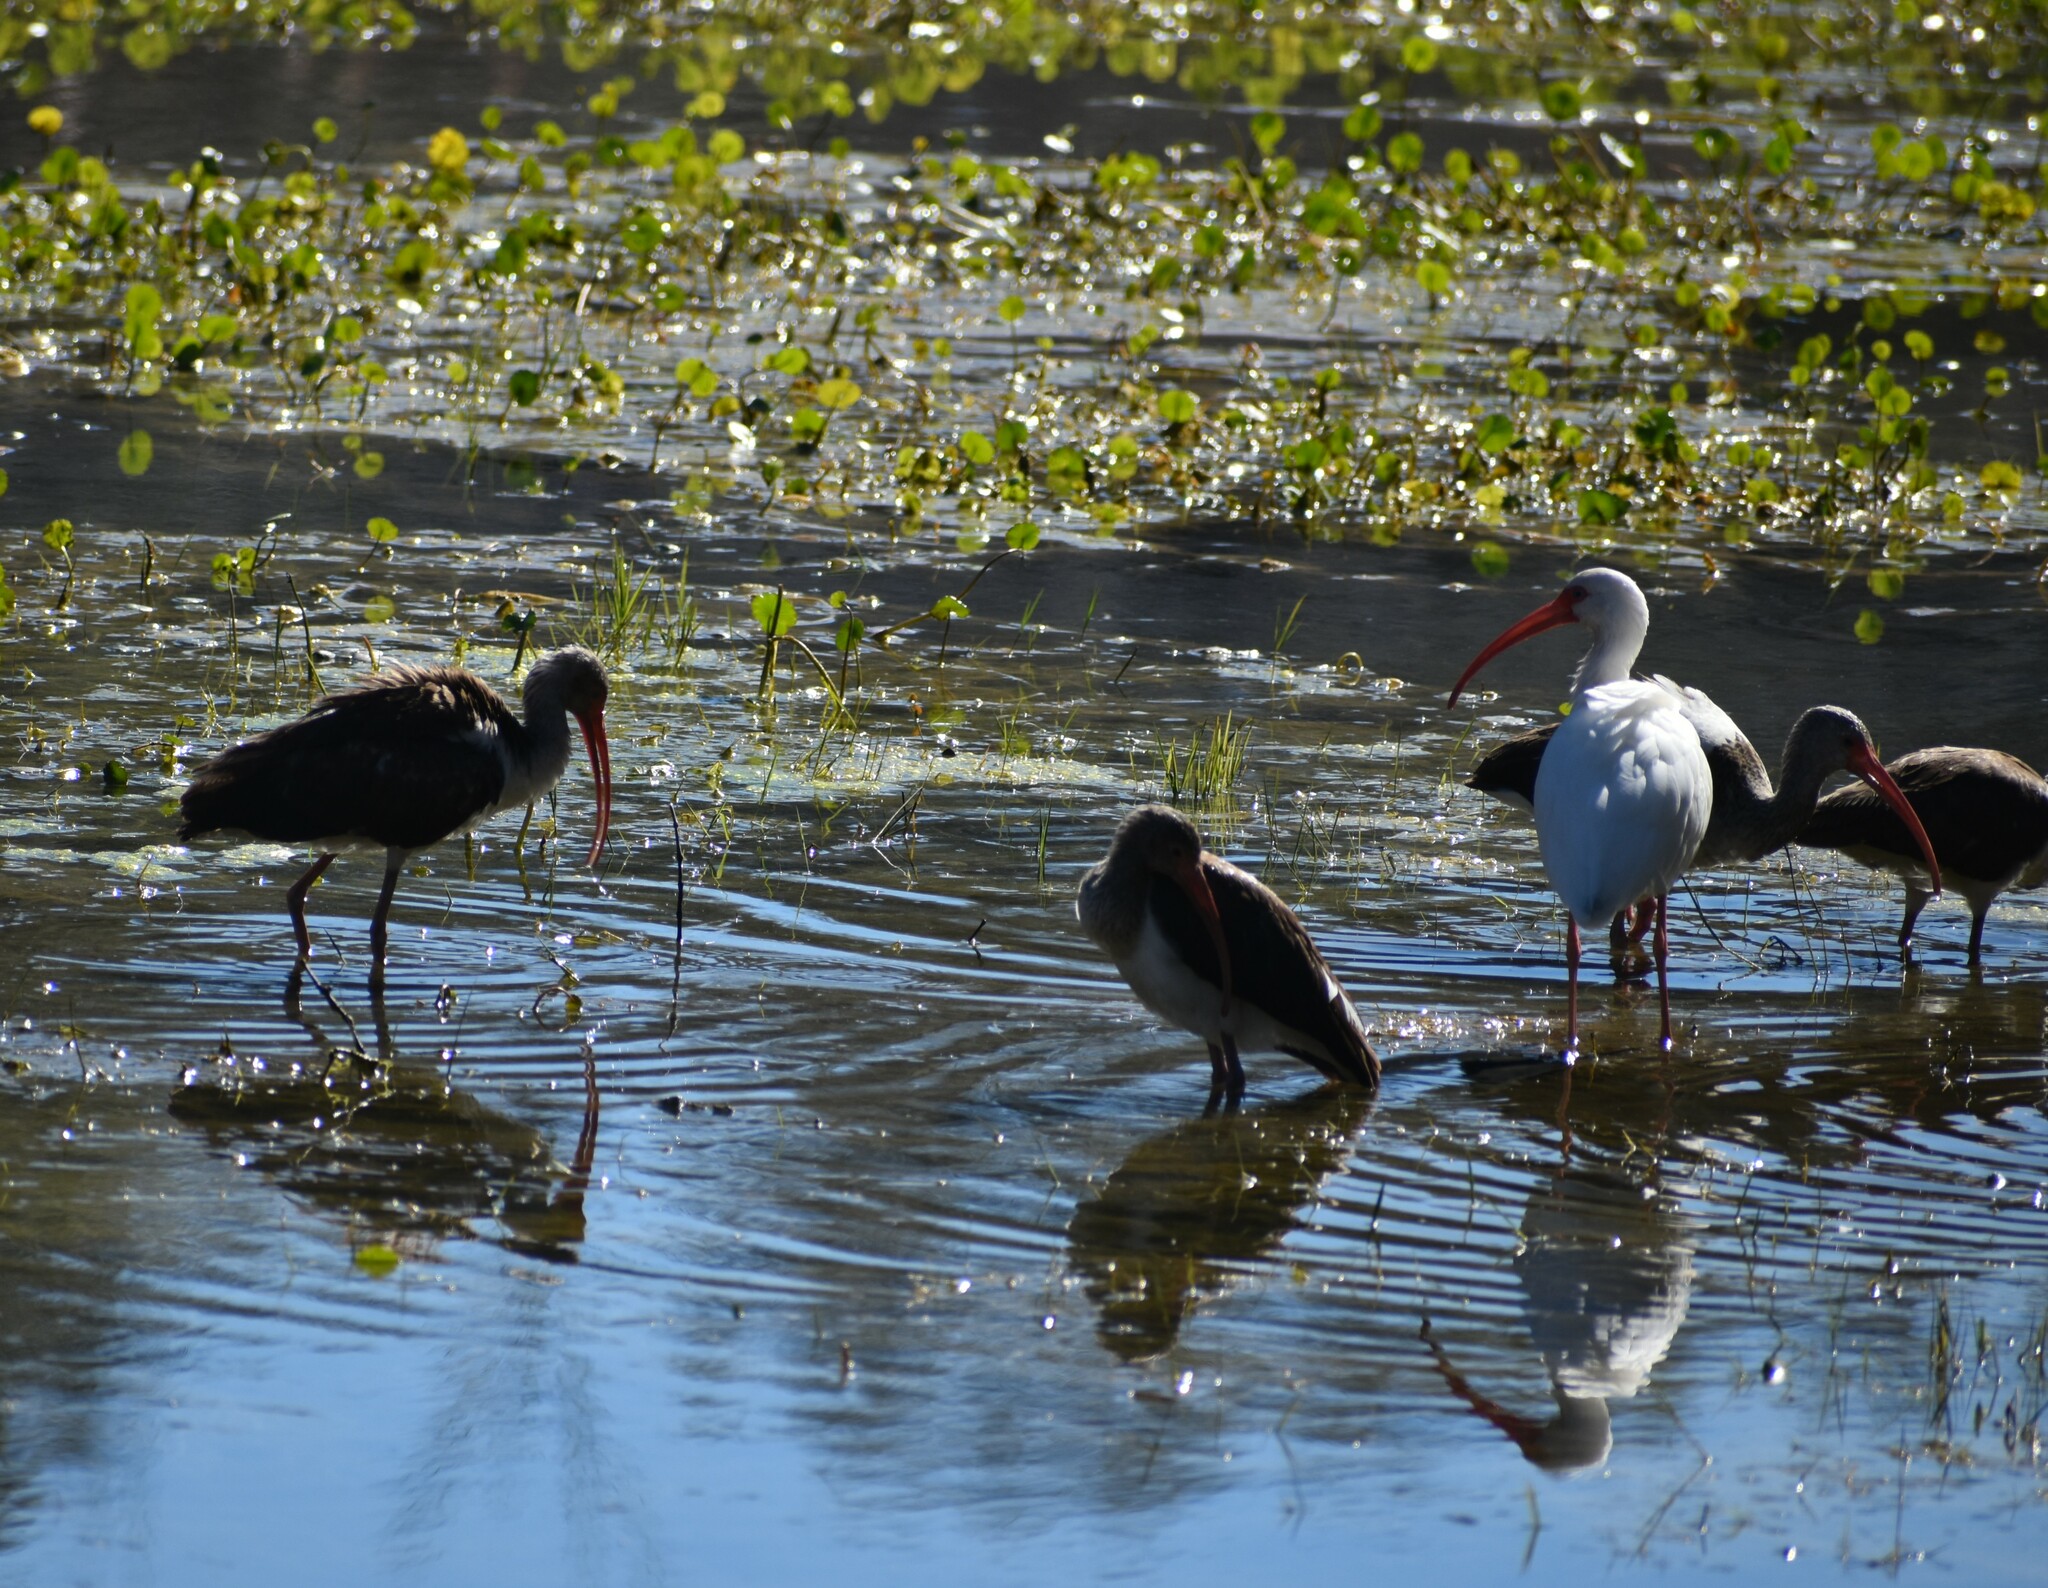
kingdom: Animalia
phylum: Chordata
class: Aves
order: Pelecaniformes
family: Threskiornithidae
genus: Eudocimus
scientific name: Eudocimus albus
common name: White ibis
